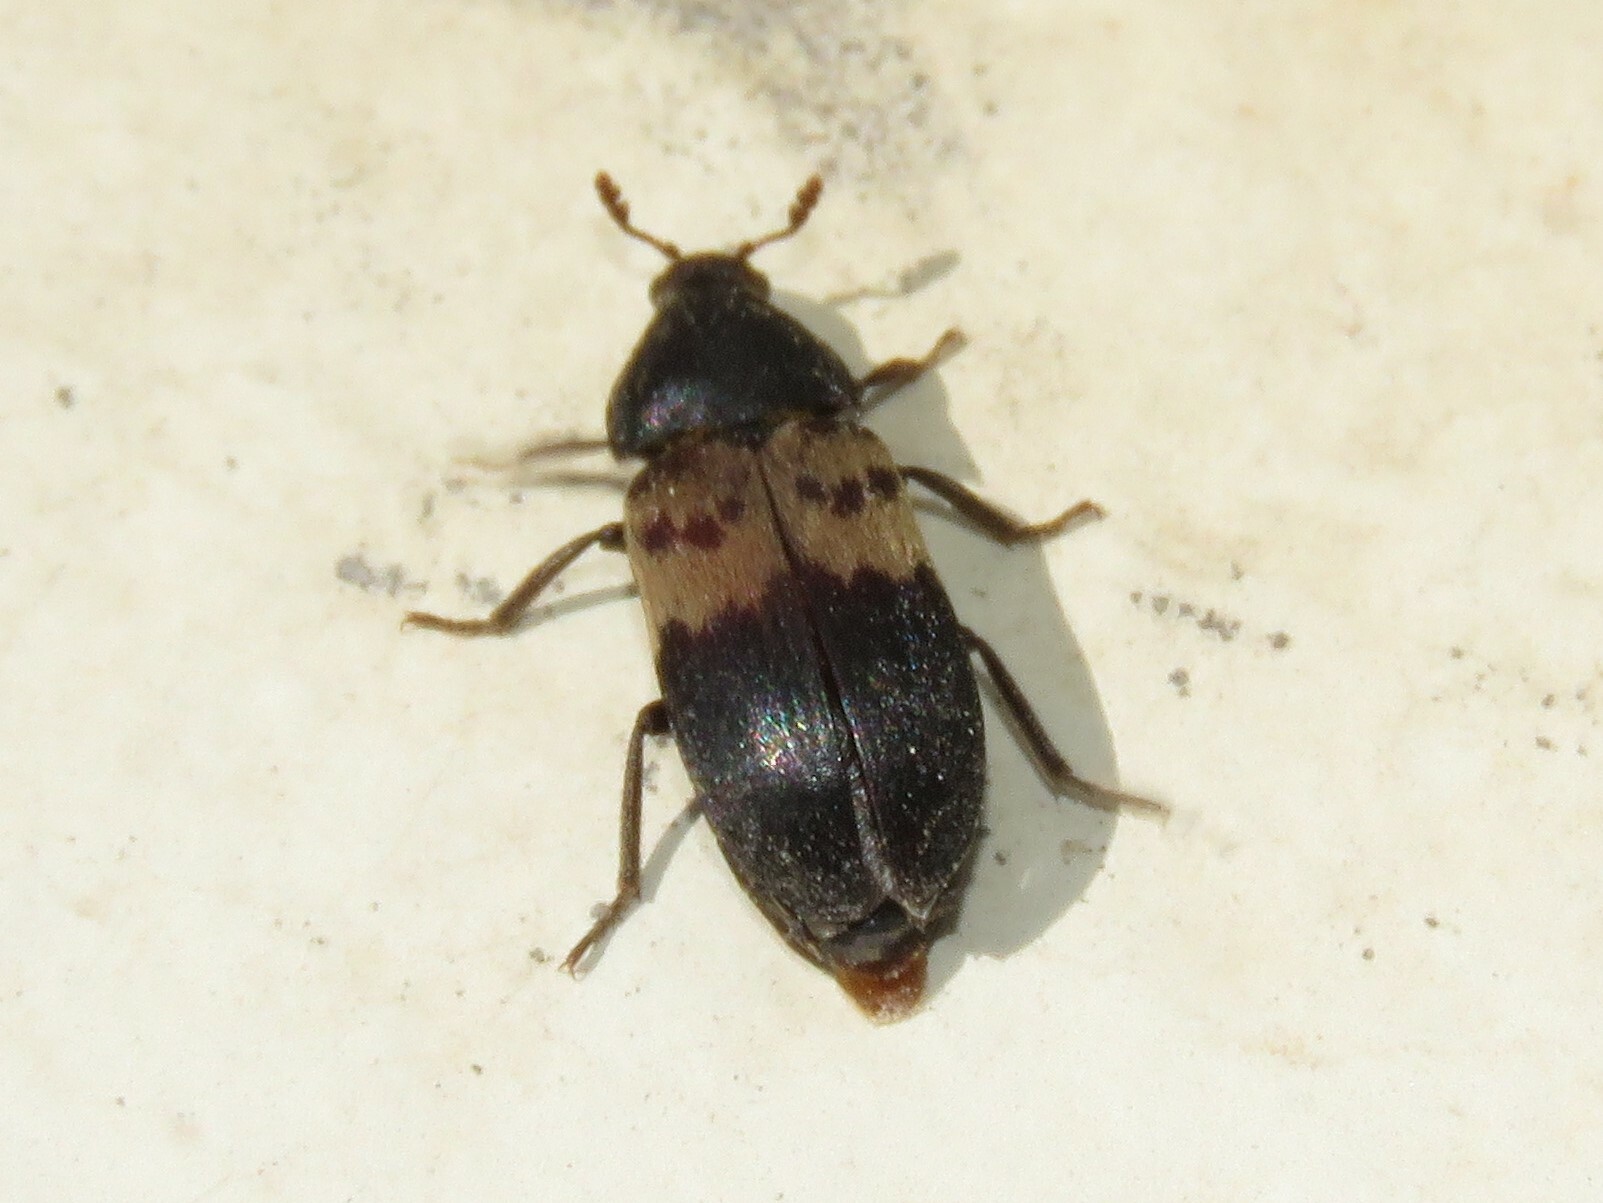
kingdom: Animalia
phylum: Arthropoda
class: Insecta
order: Coleoptera
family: Dermestidae
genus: Dermestes
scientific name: Dermestes lardarius
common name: Larder beetle
